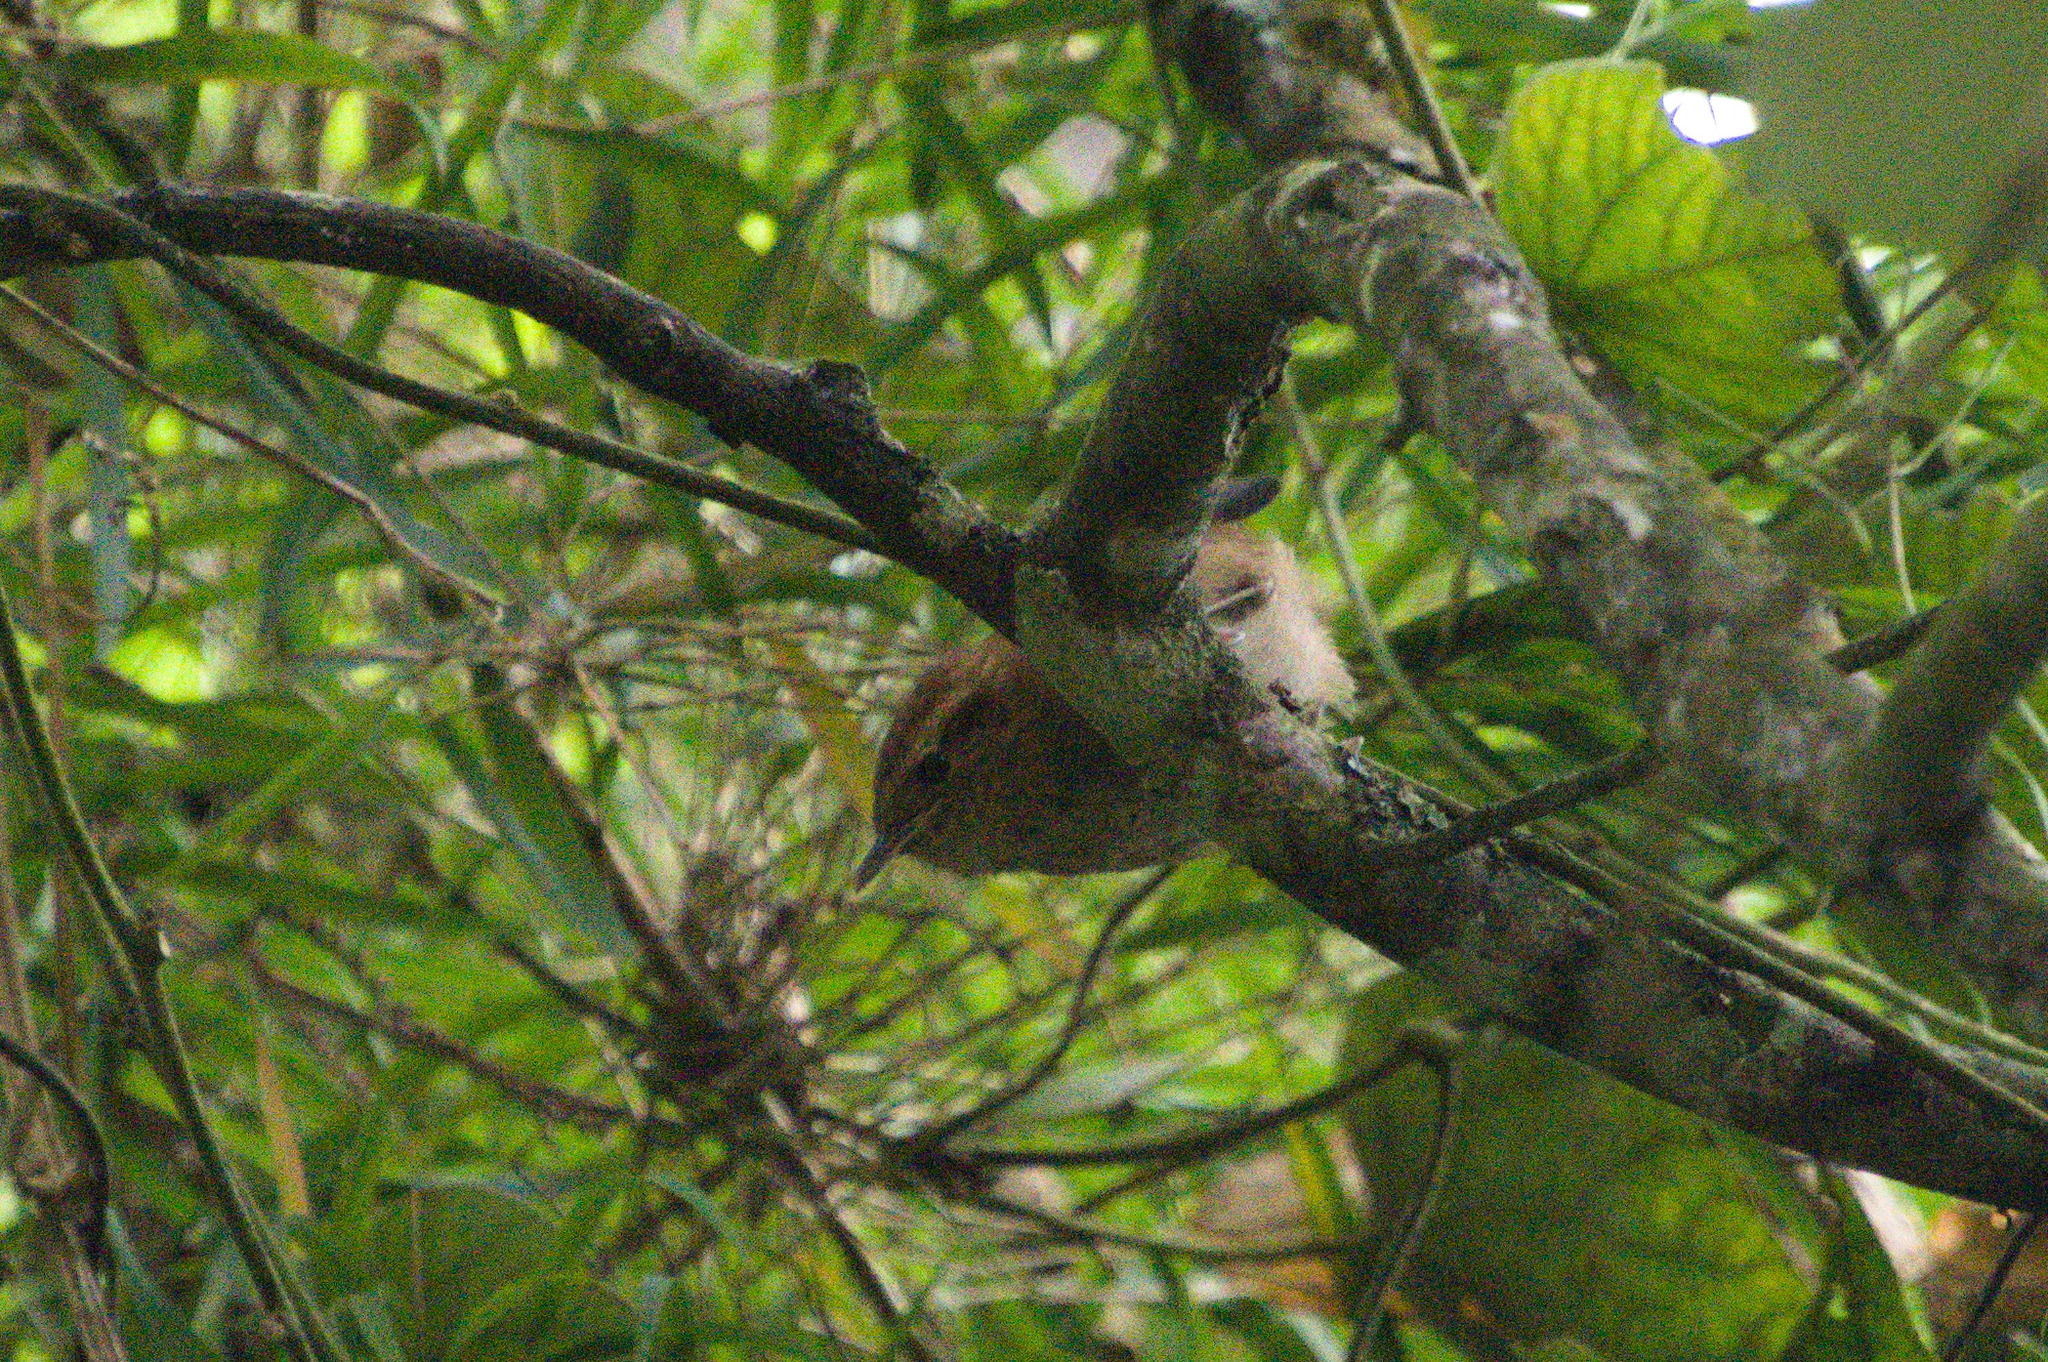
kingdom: Animalia
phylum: Chordata
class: Aves
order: Passeriformes
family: Troglodytidae
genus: Troglodytes
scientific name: Troglodytes solstitialis
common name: Mountain wren
